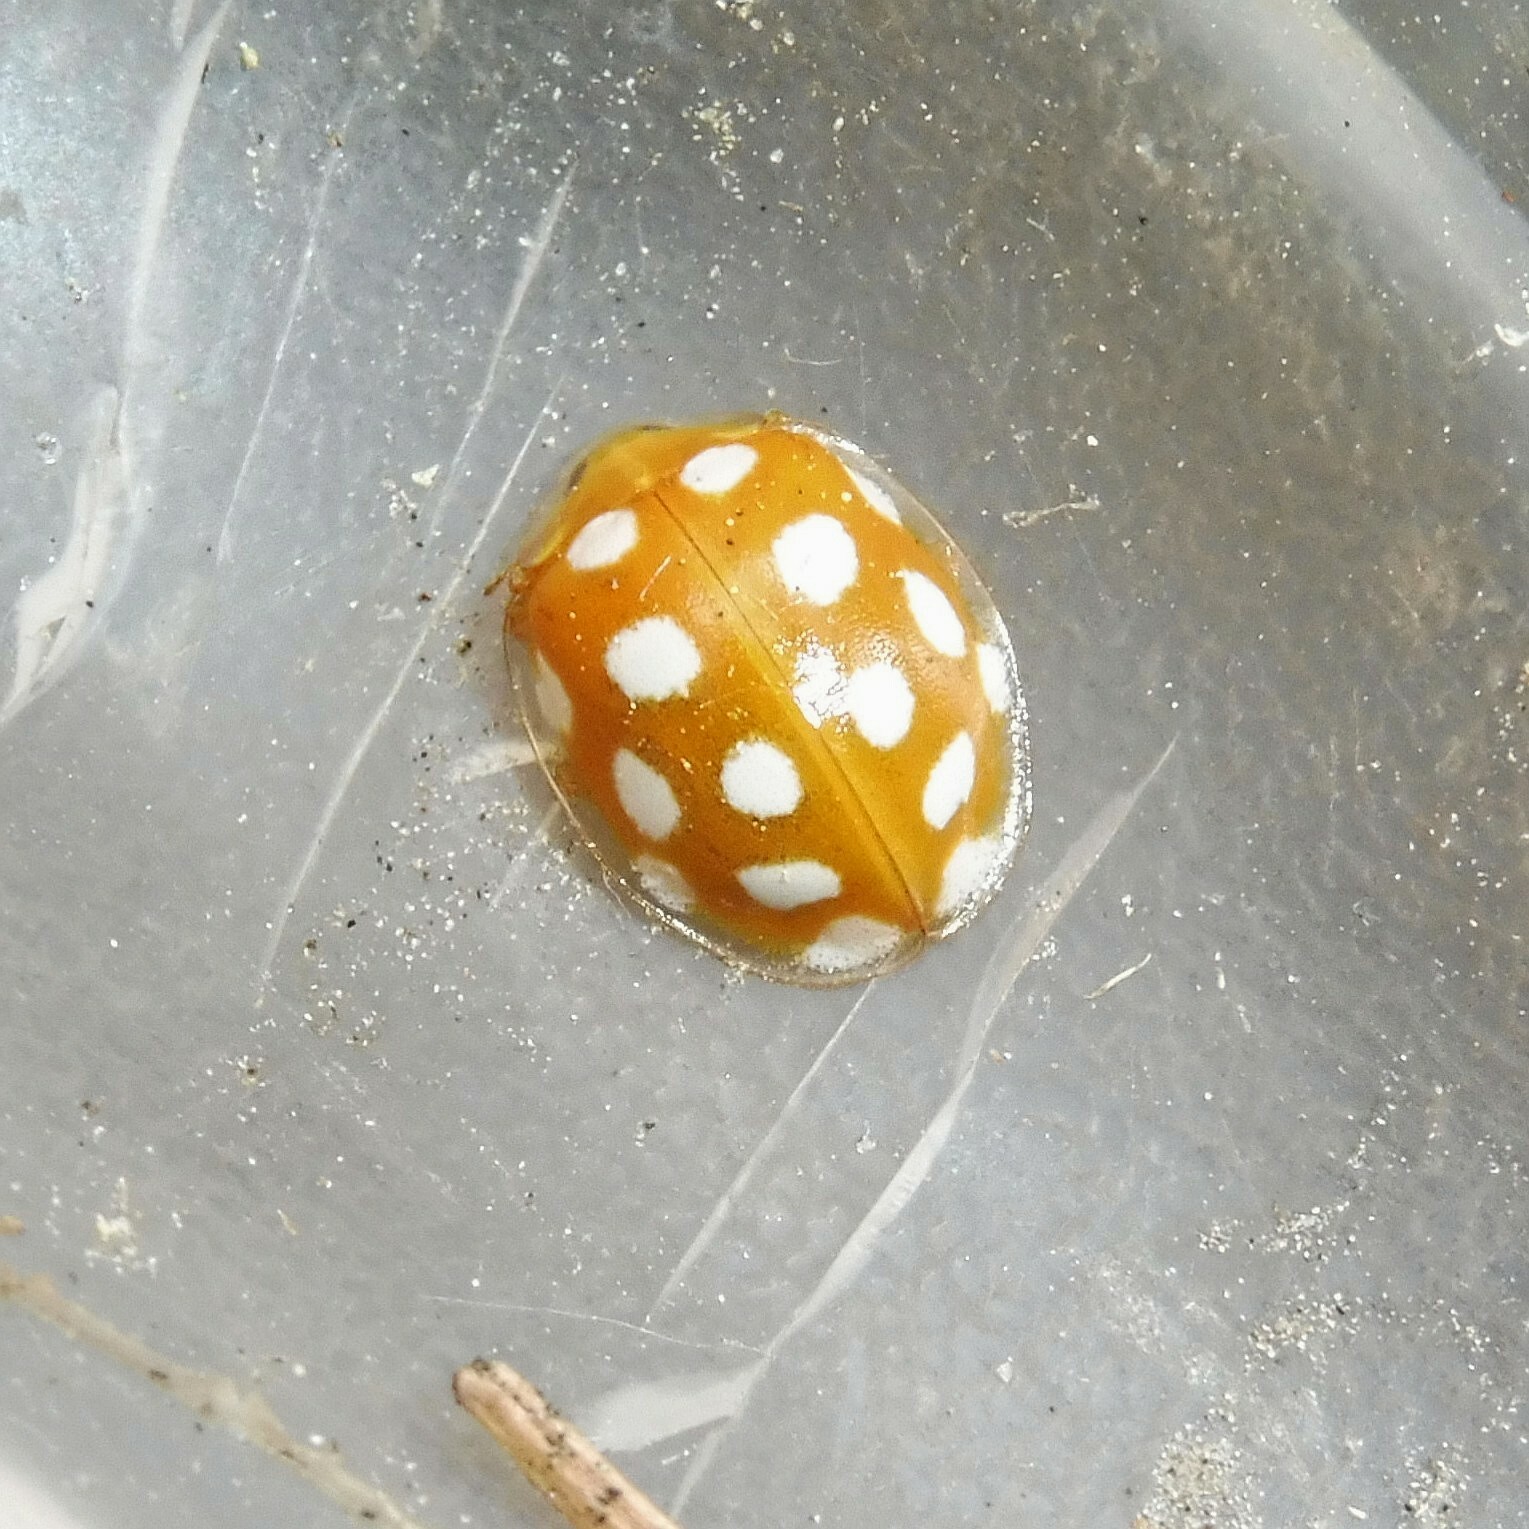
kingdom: Animalia
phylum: Arthropoda
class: Insecta
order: Coleoptera
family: Coccinellidae
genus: Halyzia
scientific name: Halyzia sedecimguttata
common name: Orange ladybird
